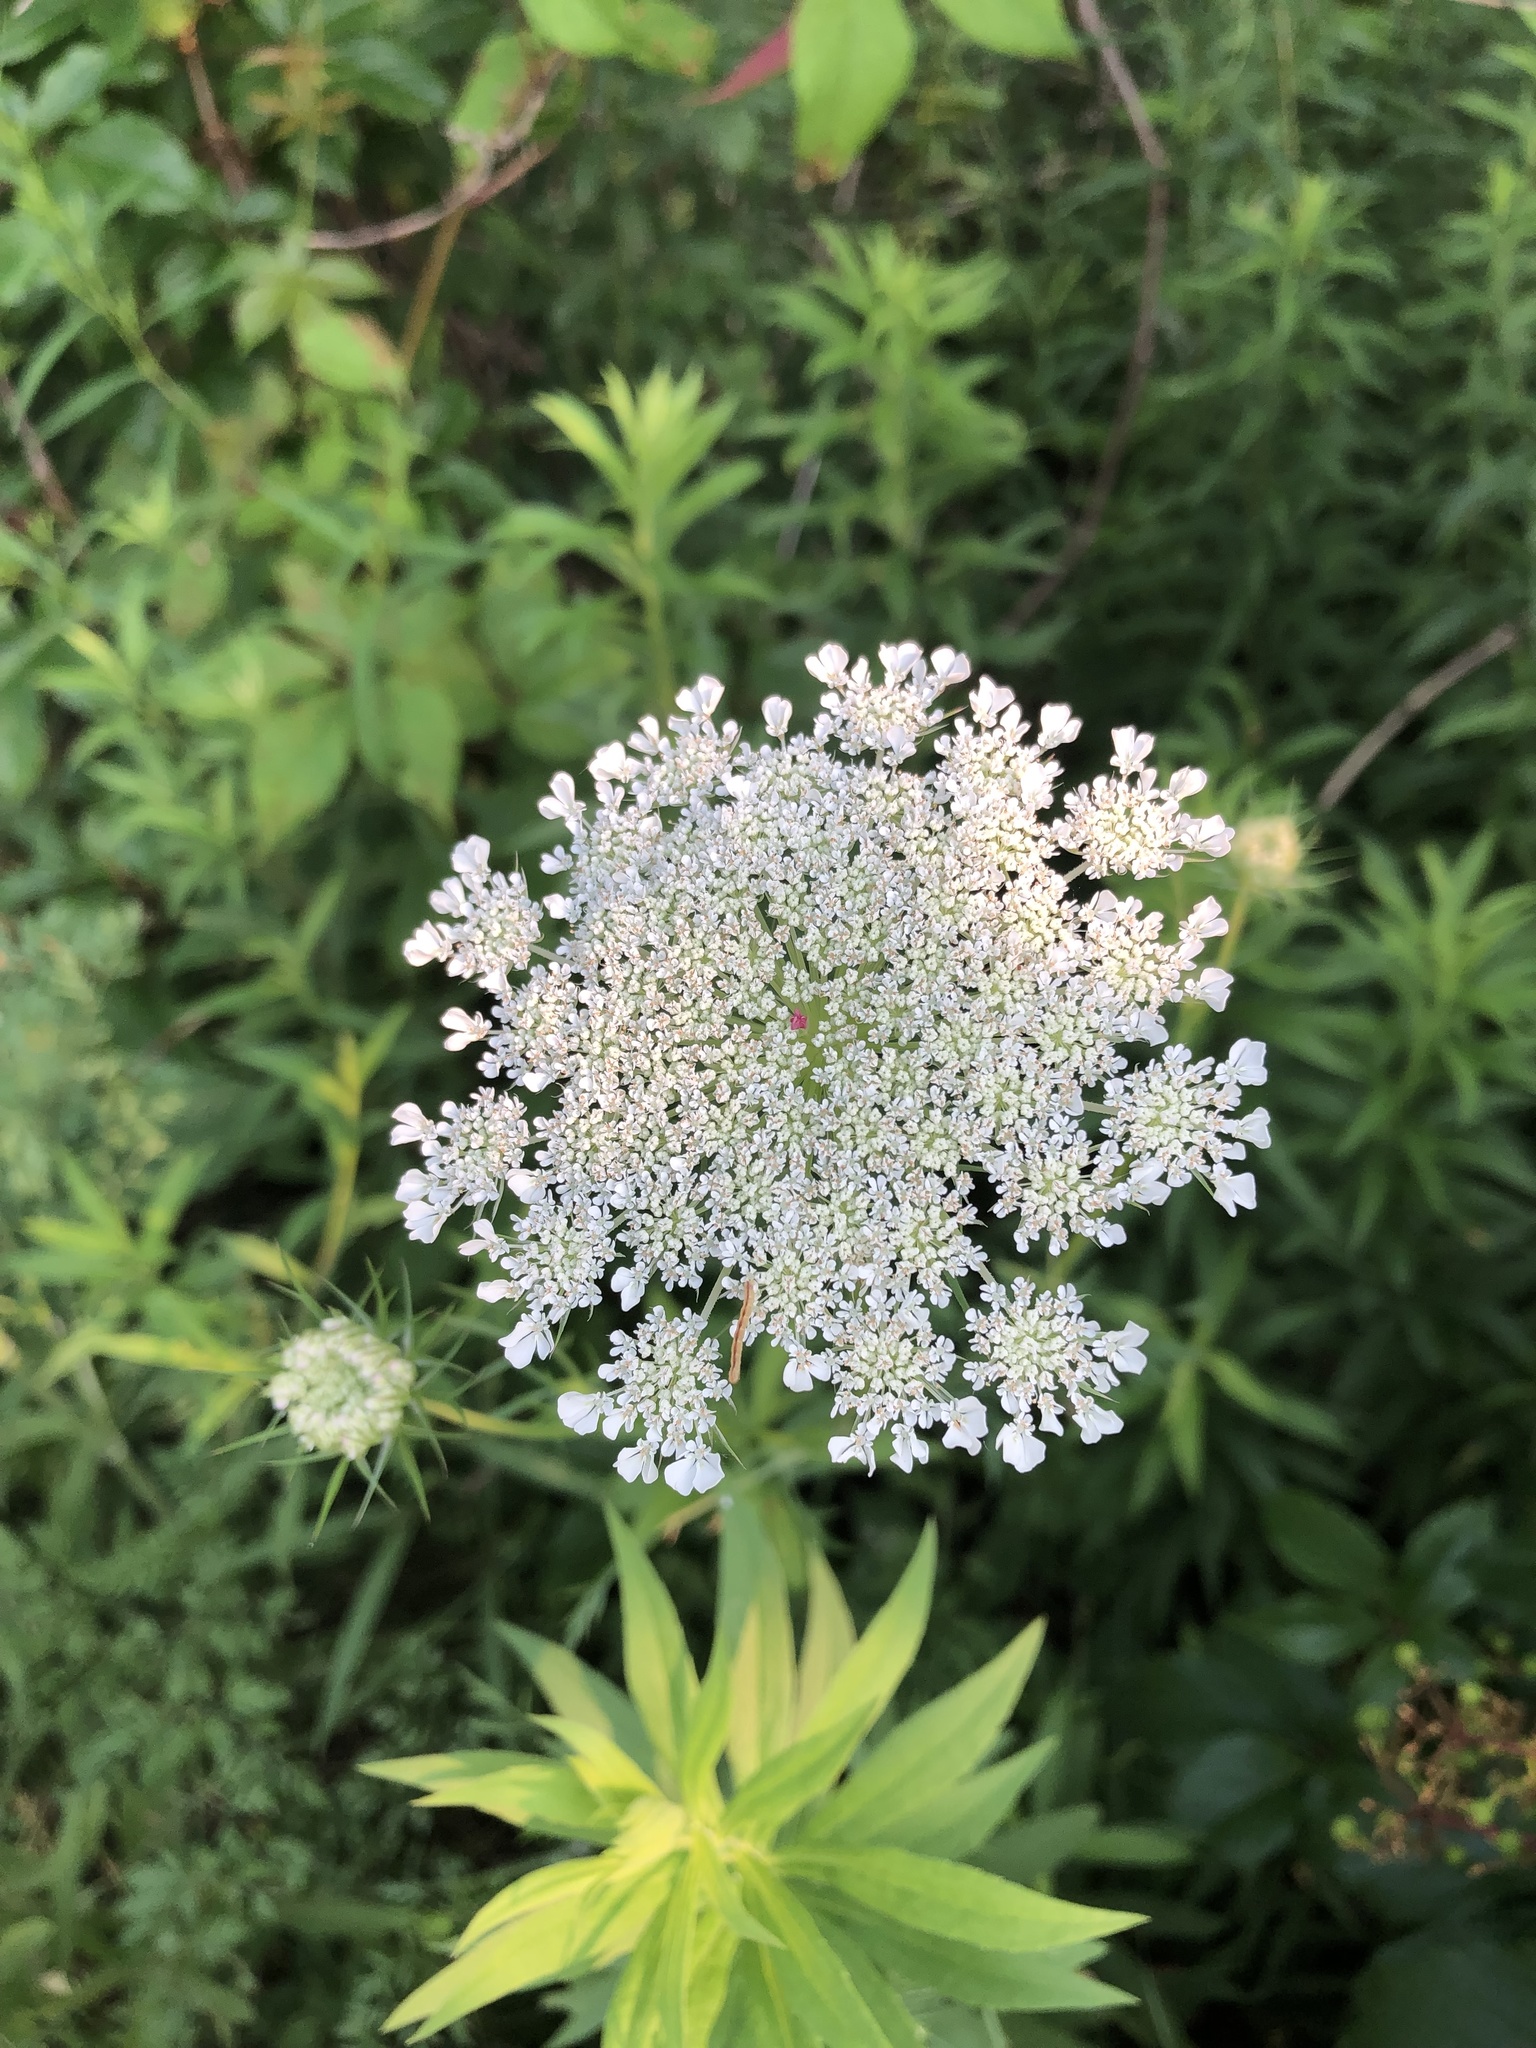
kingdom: Plantae
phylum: Tracheophyta
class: Magnoliopsida
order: Apiales
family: Apiaceae
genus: Daucus
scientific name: Daucus carota
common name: Wild carrot
